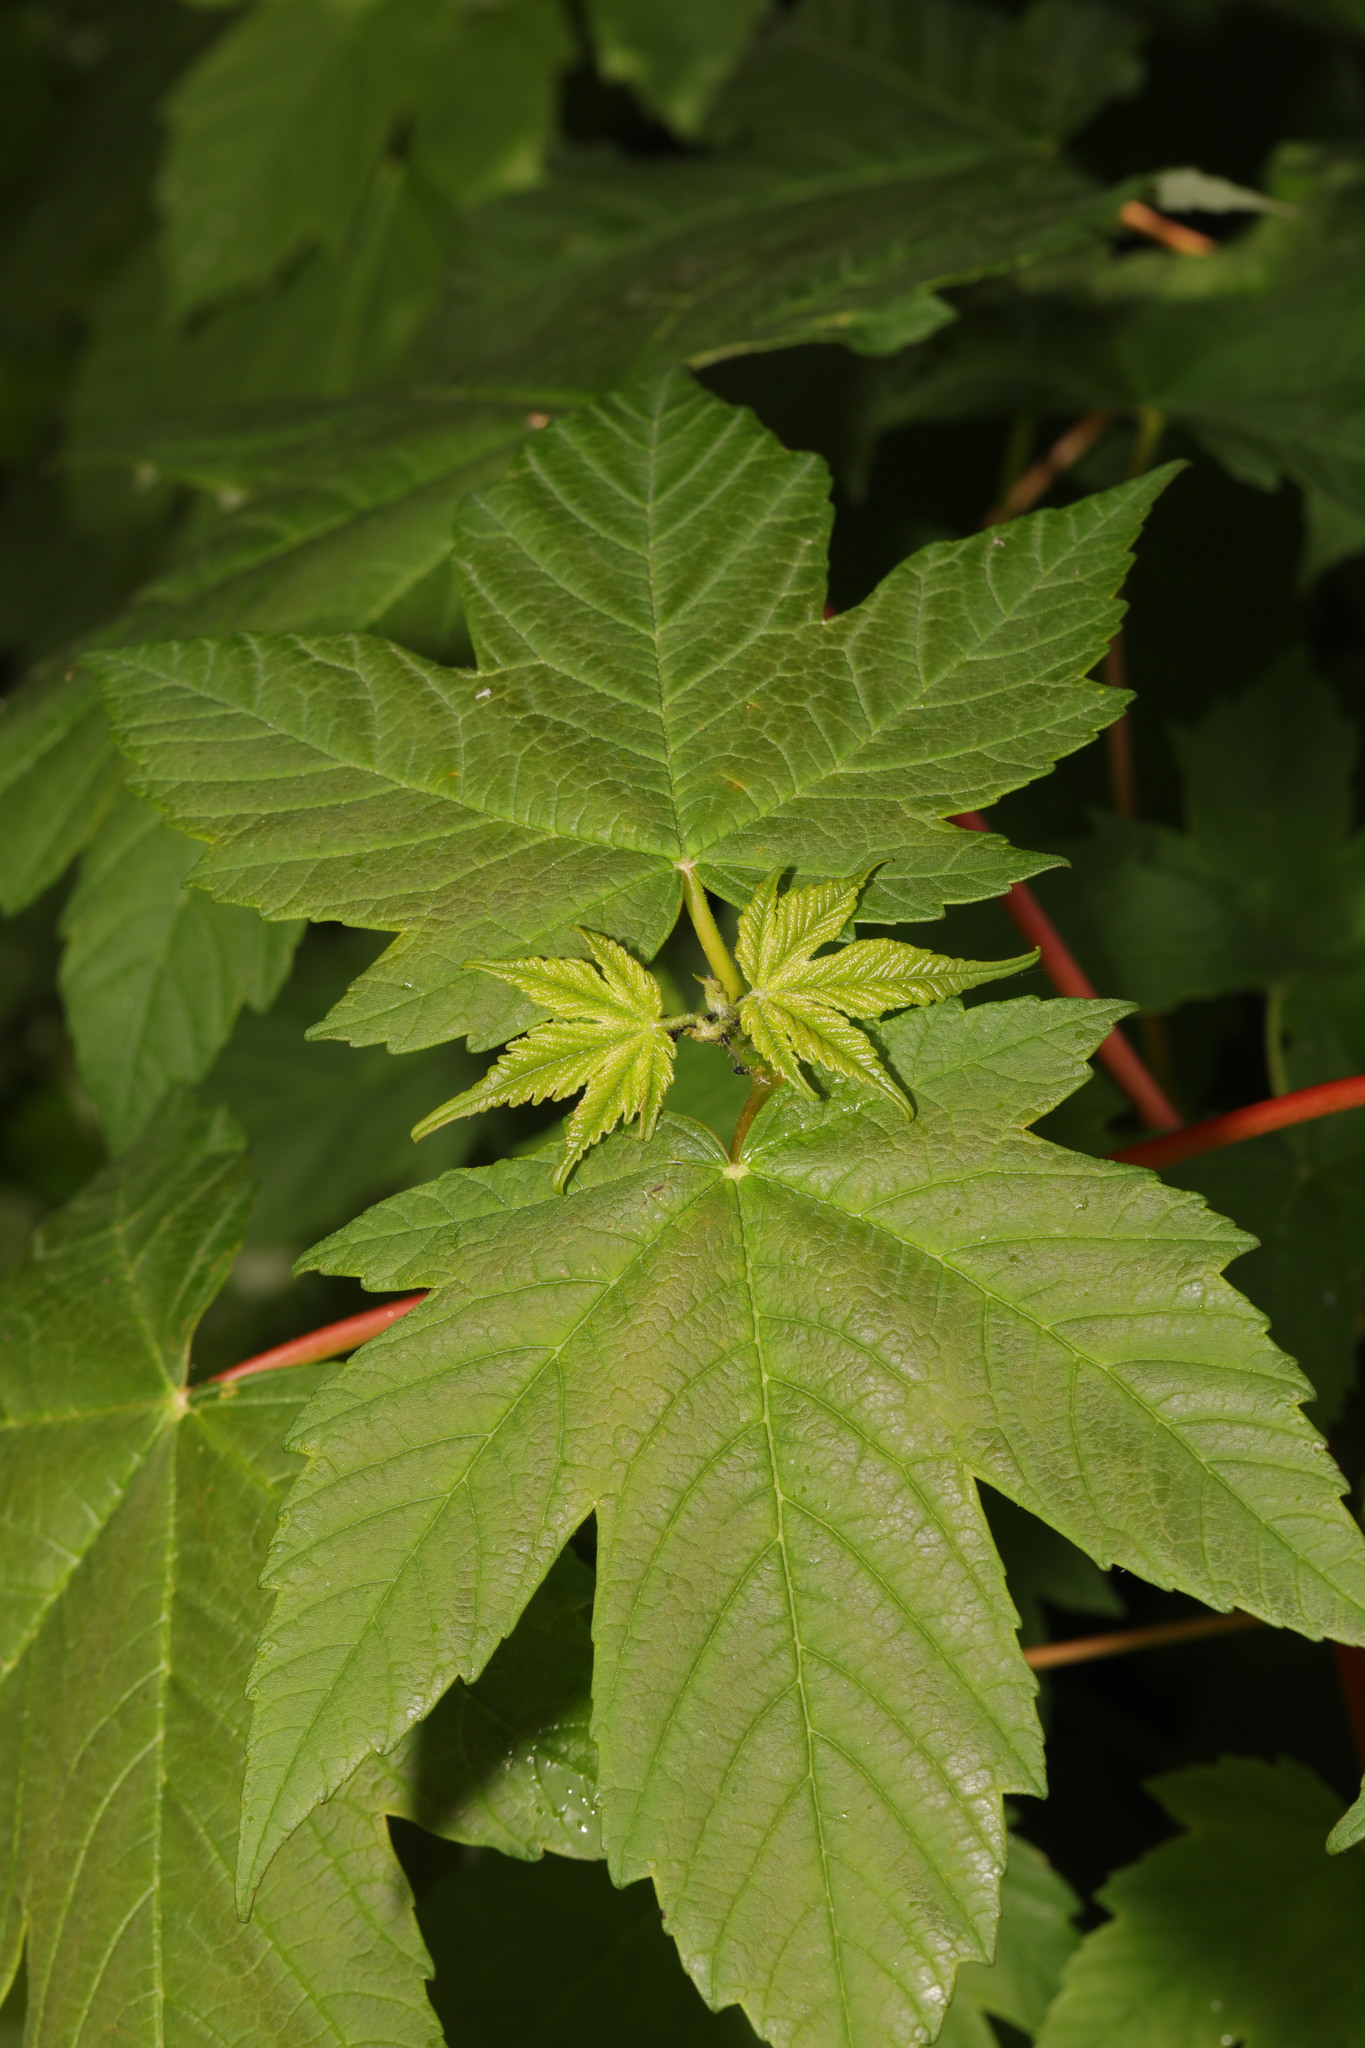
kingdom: Plantae
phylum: Tracheophyta
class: Magnoliopsida
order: Sapindales
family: Sapindaceae
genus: Acer
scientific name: Acer pseudoplatanus
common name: Sycamore
